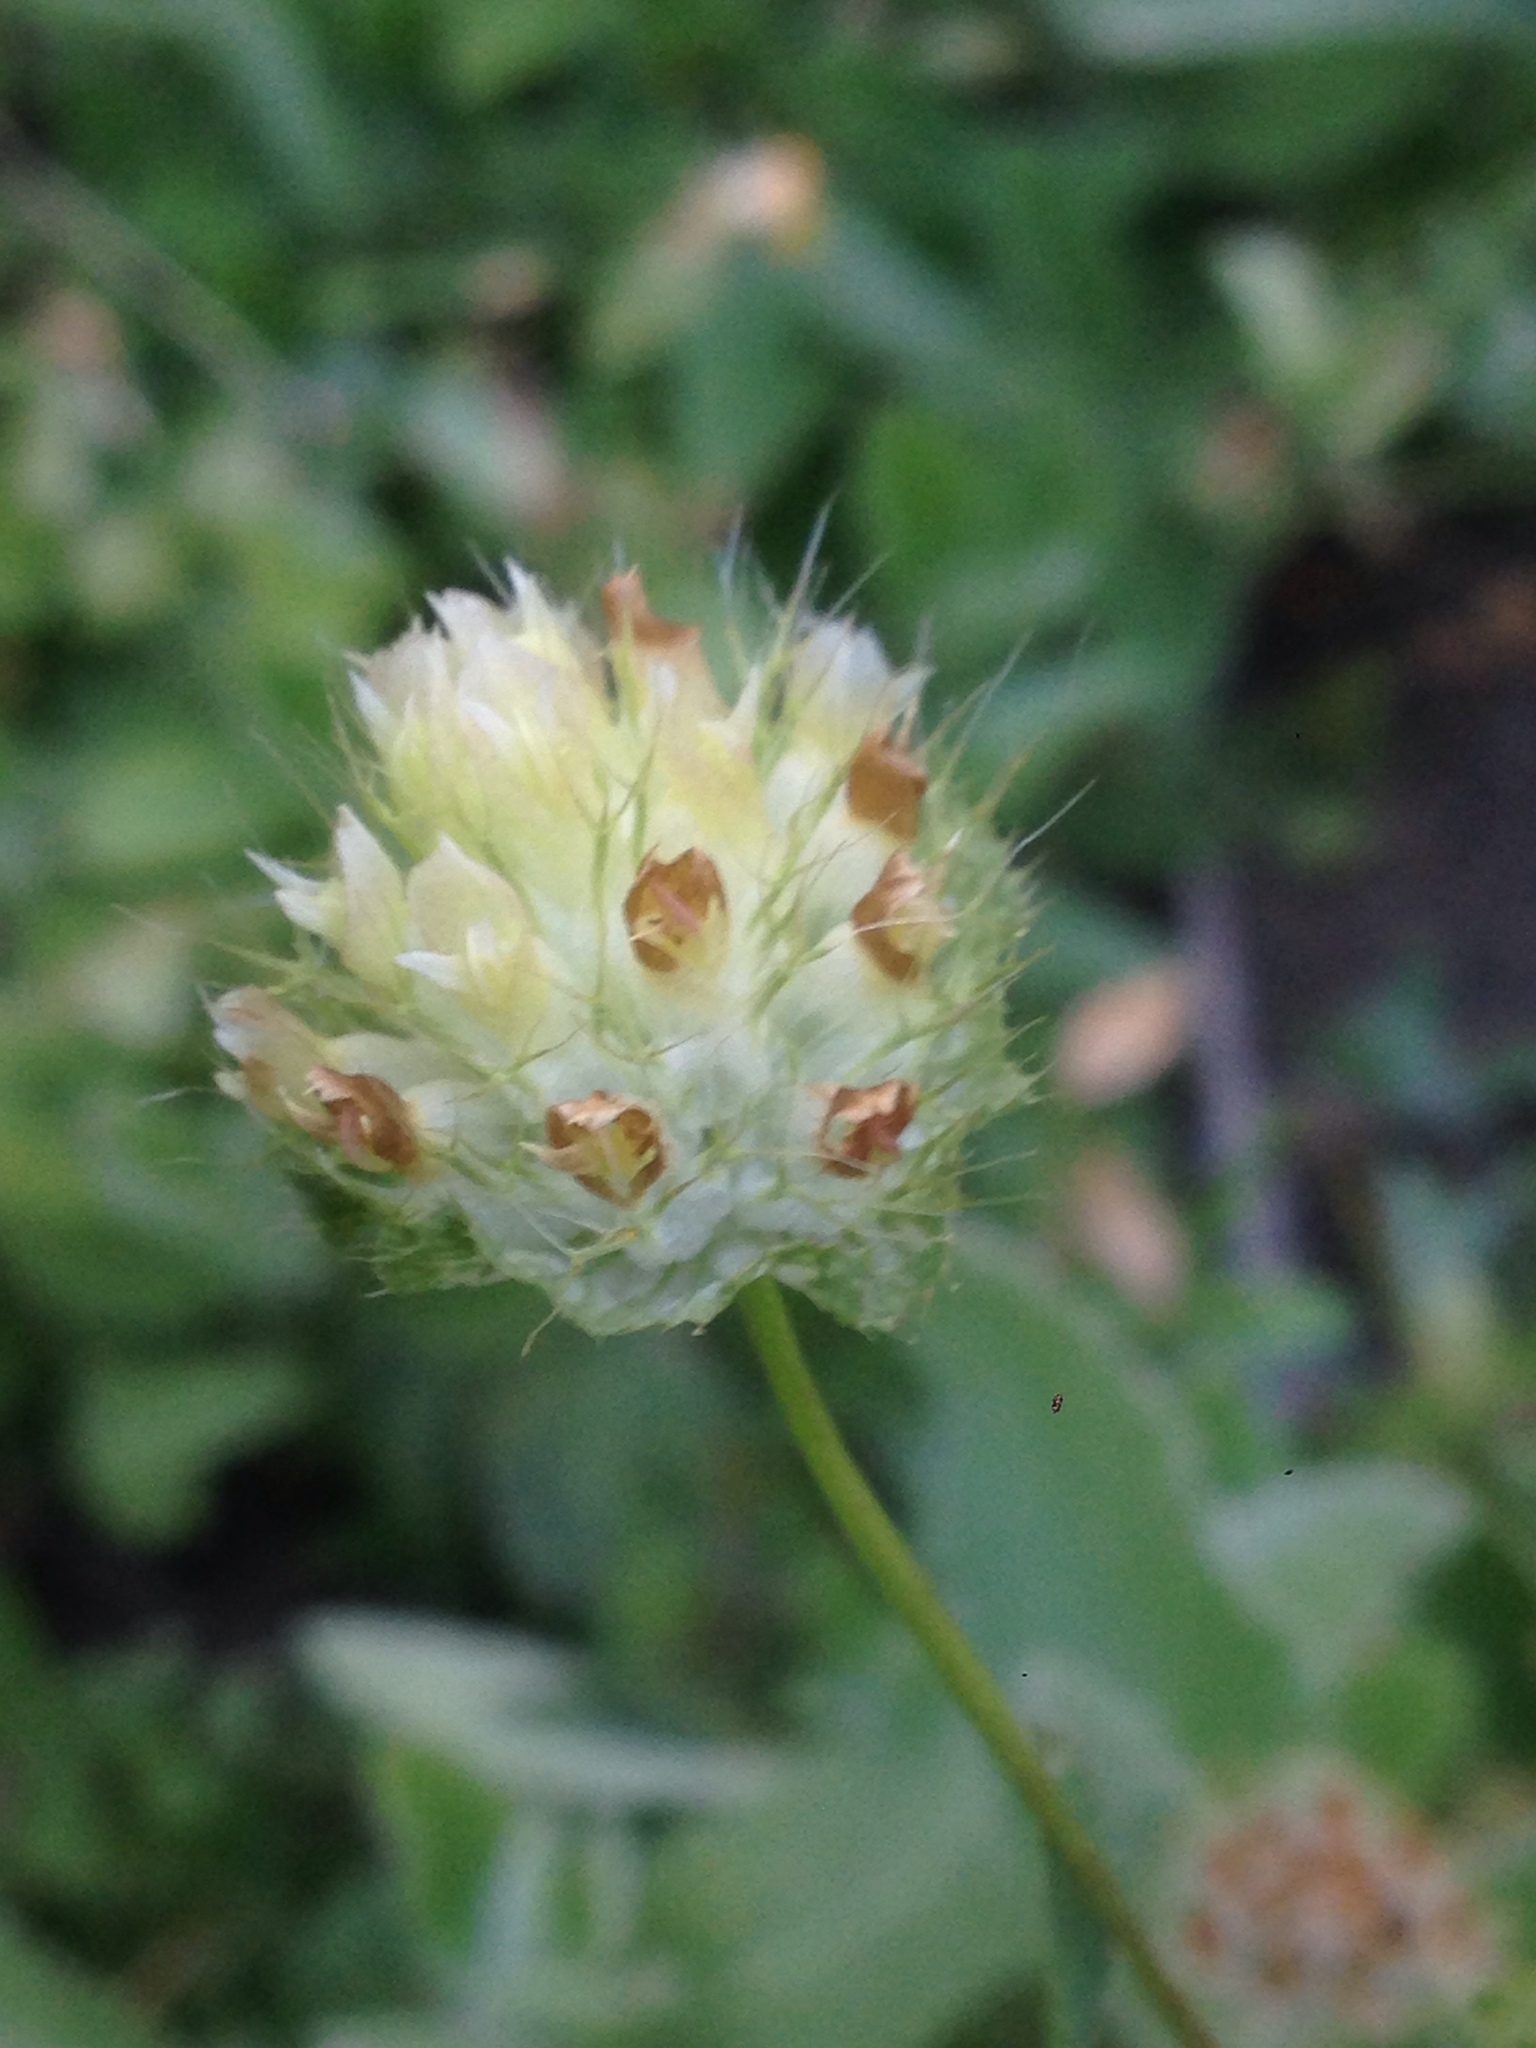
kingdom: Plantae
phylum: Tracheophyta
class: Magnoliopsida
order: Fabales
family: Fabaceae
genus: Trifolium
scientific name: Trifolium cyathiferum
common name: Bowl clover
